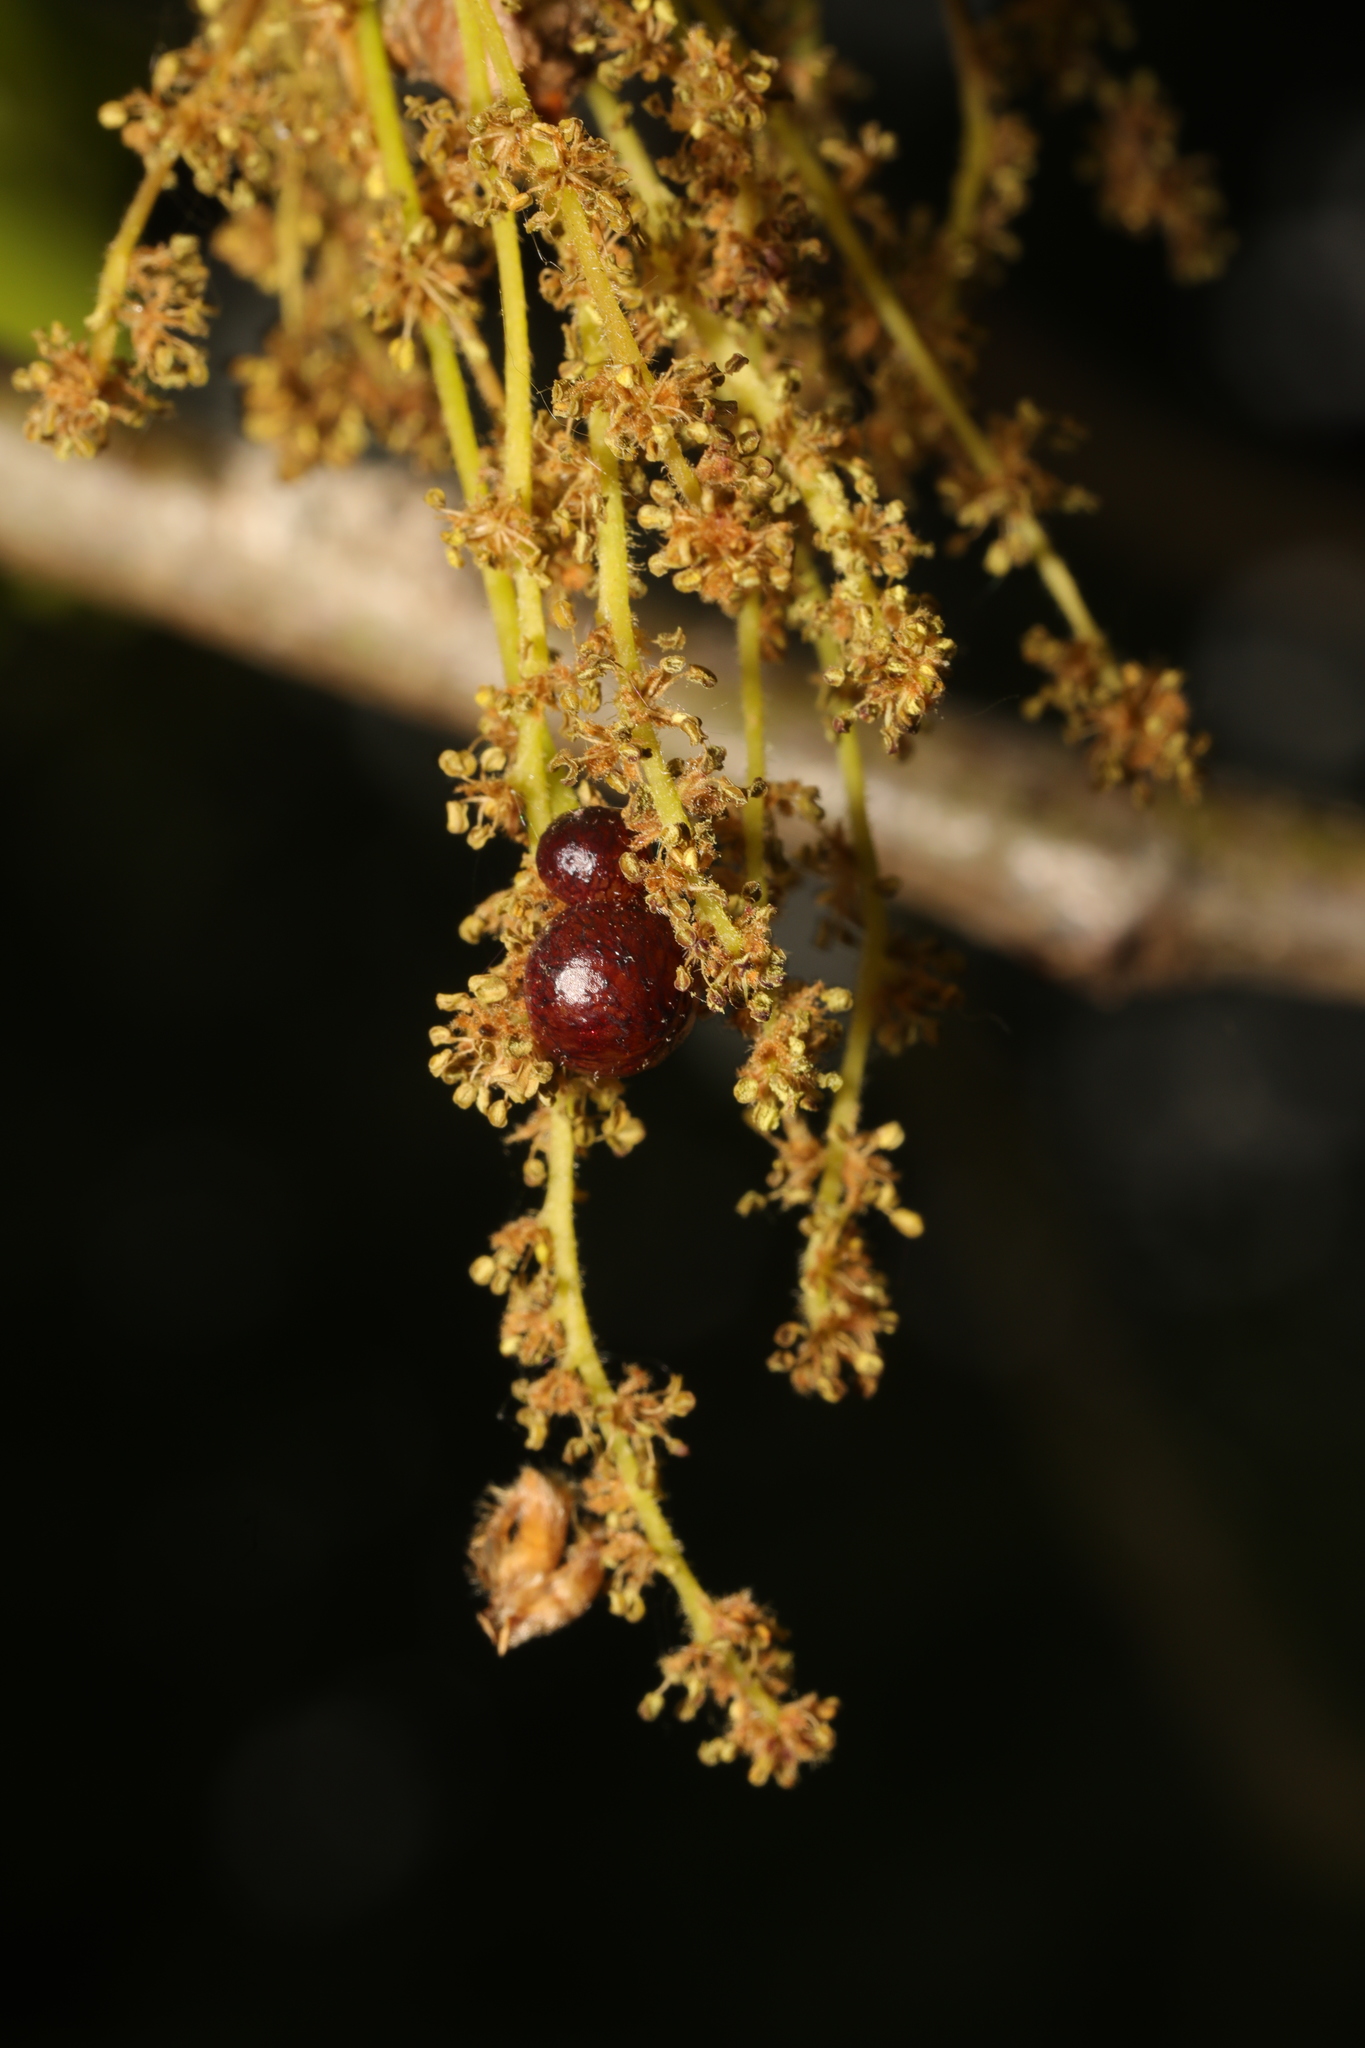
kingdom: Animalia
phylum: Arthropoda
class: Insecta
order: Hymenoptera
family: Cynipidae
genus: Neuroterus
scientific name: Neuroterus quercusbaccarum
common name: Common spangle gall
